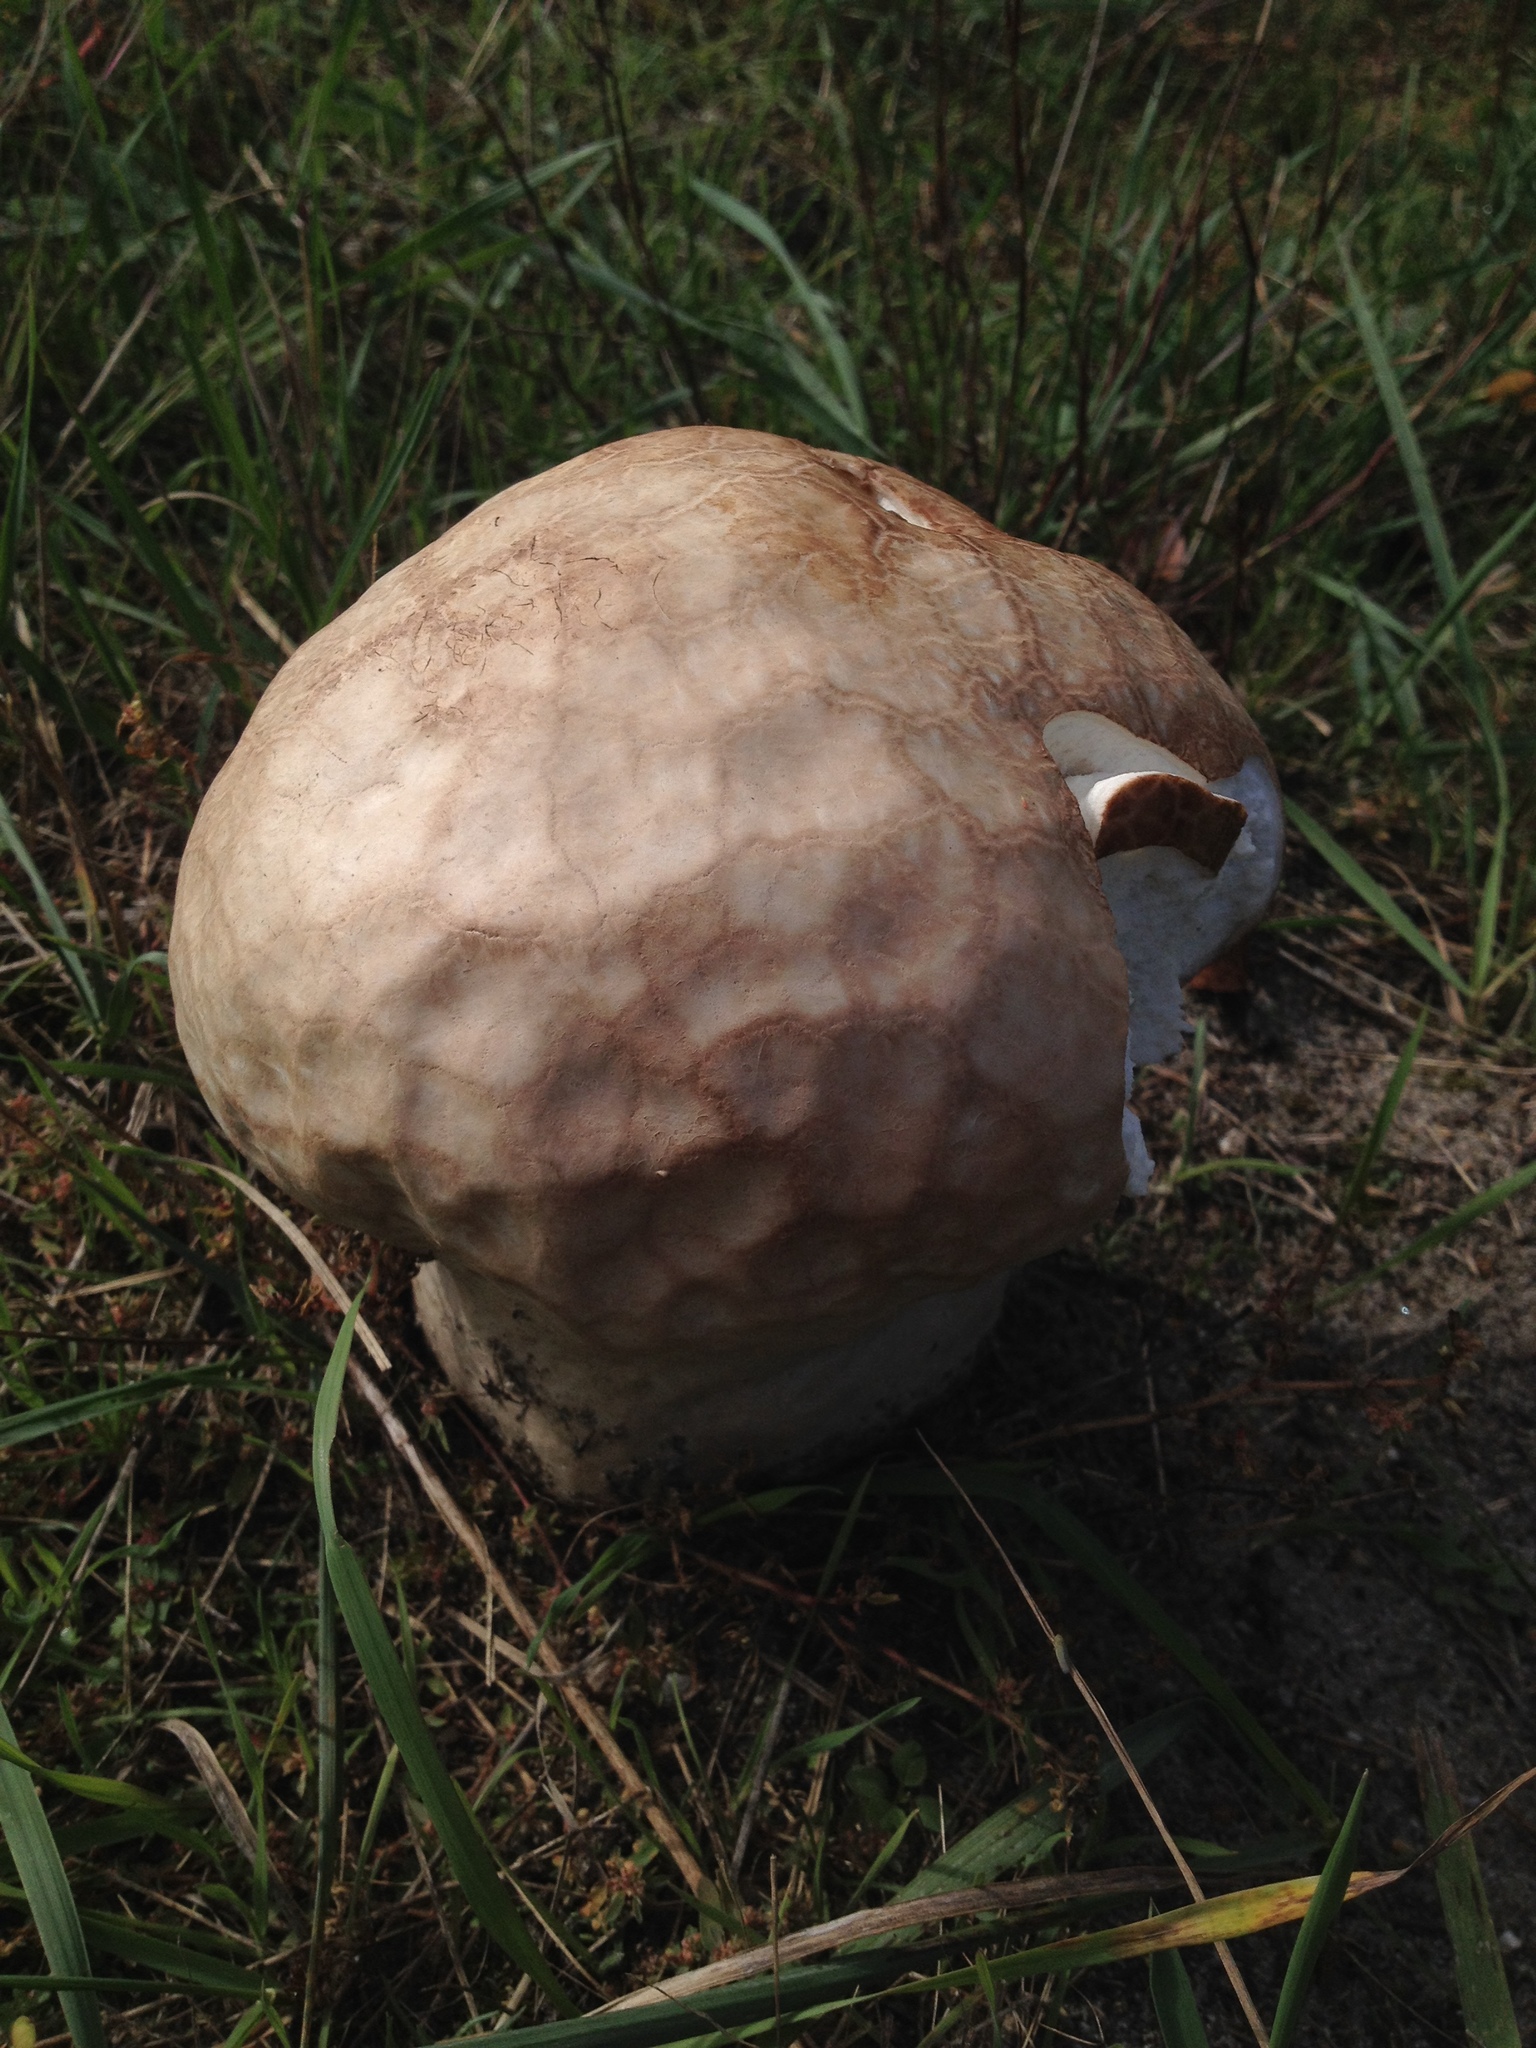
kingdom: Fungi
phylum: Basidiomycota
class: Agaricomycetes
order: Agaricales
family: Lycoperdaceae
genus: Calvatia
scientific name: Calvatia cyathiformis
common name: Purple-spored puffball
